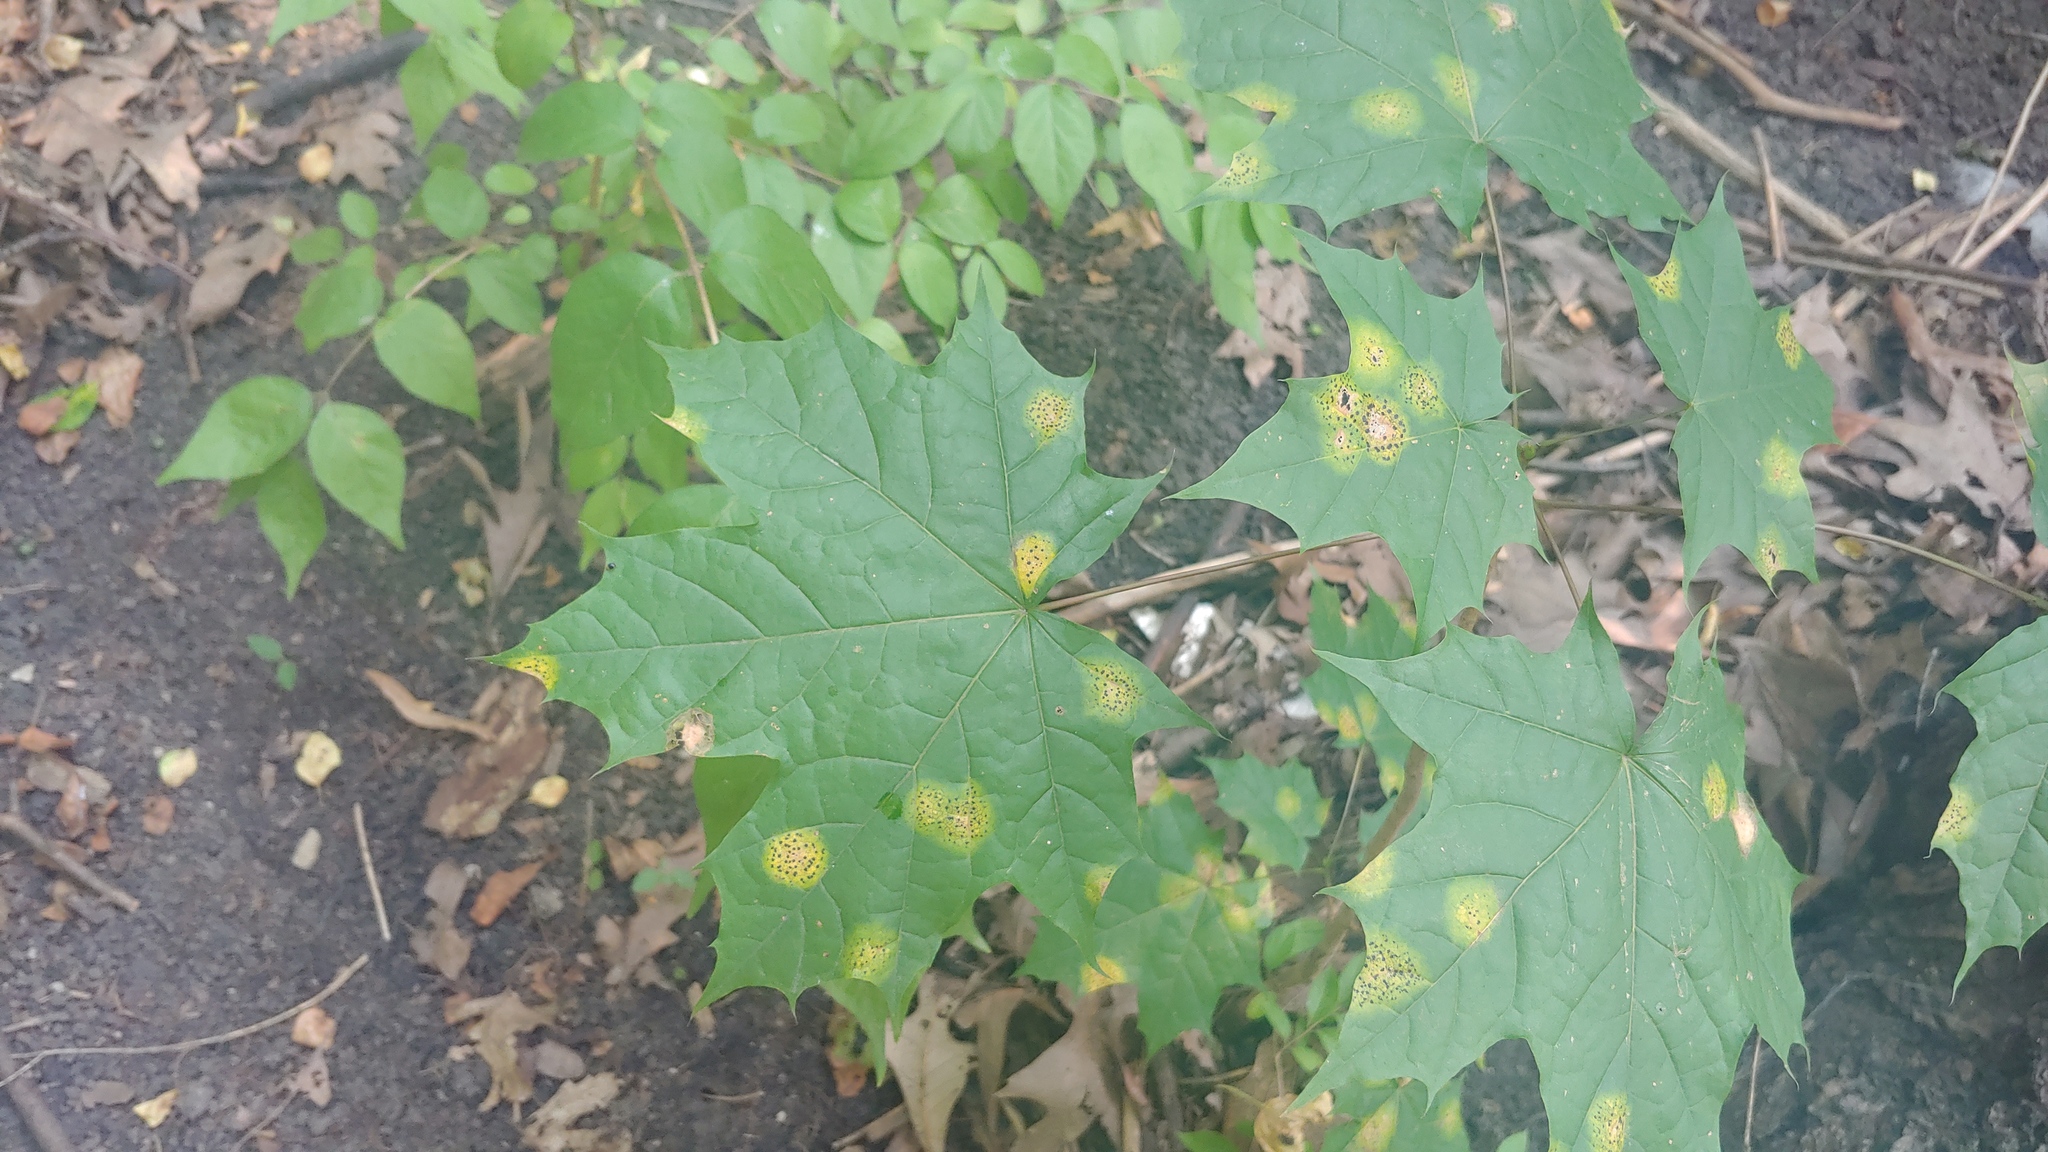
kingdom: Plantae
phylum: Tracheophyta
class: Magnoliopsida
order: Sapindales
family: Sapindaceae
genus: Acer
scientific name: Acer platanoides
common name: Norway maple
